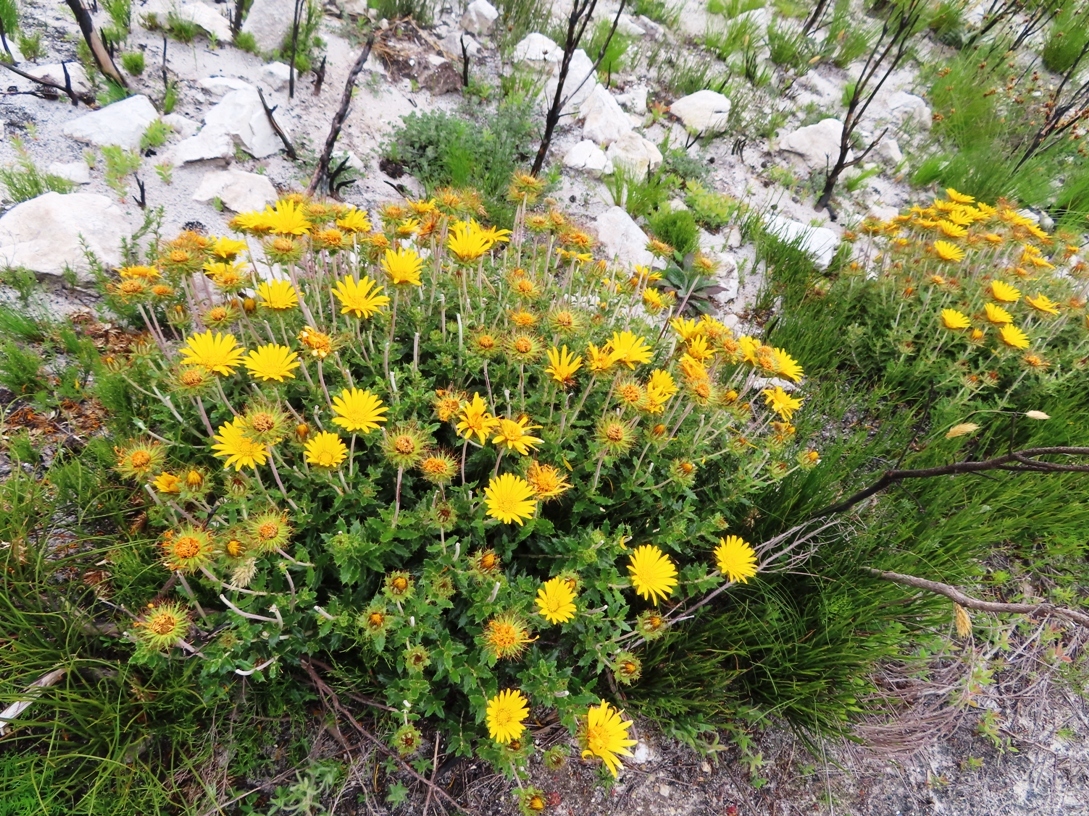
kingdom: Plantae
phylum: Tracheophyta
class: Magnoliopsida
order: Asterales
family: Asteraceae
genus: Berkheya
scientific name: Berkheya barbata
